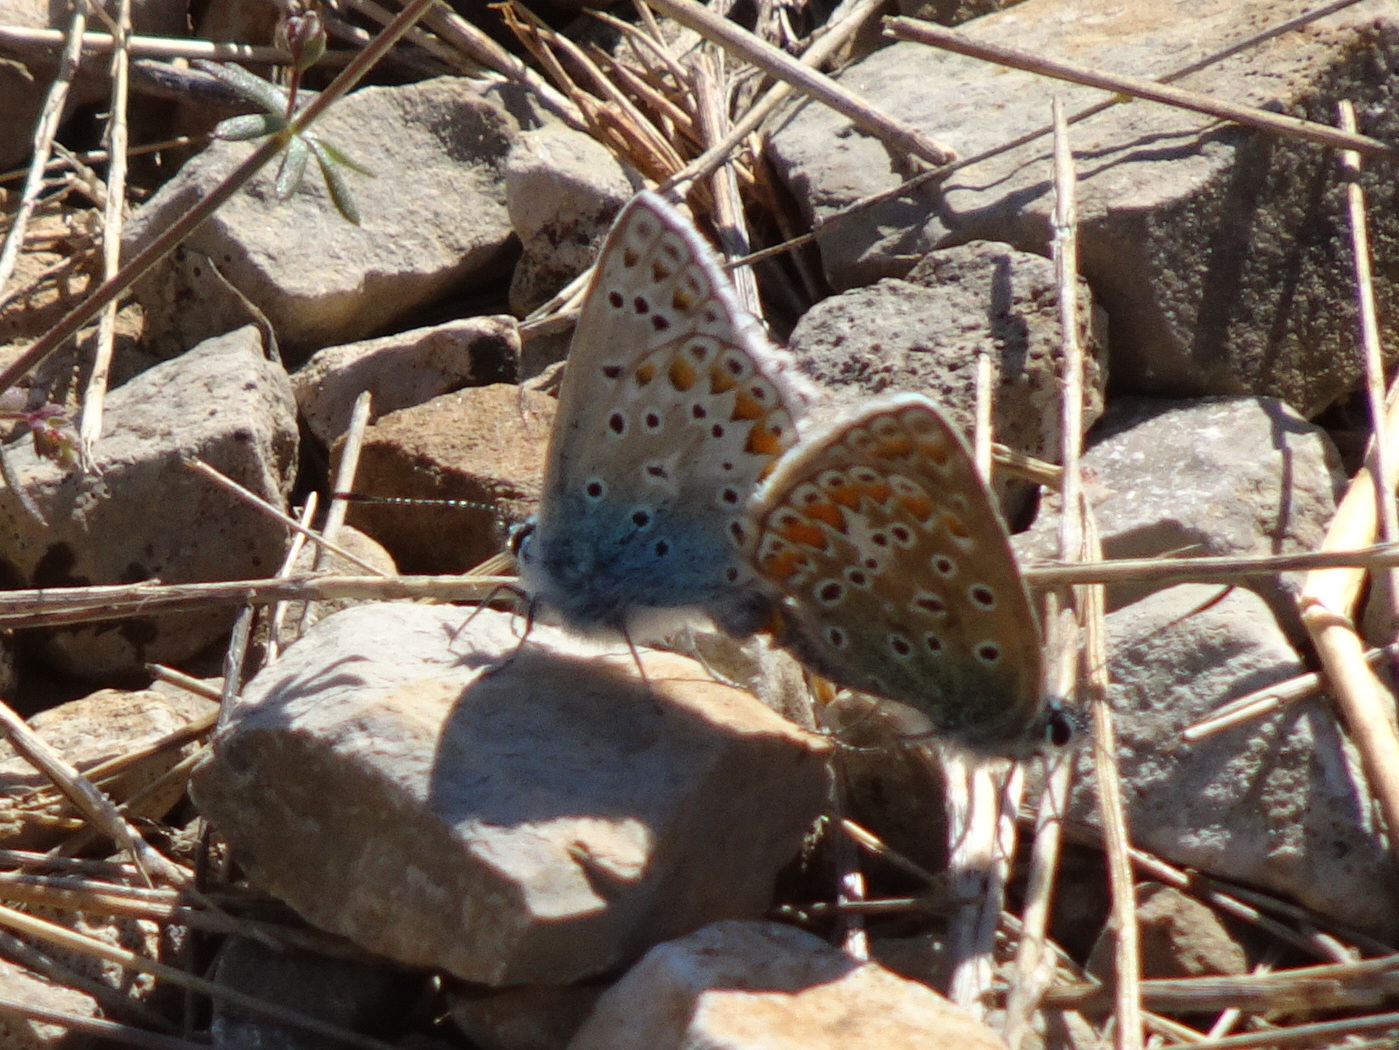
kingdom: Animalia
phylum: Arthropoda
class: Insecta
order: Lepidoptera
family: Lycaenidae
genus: Polyommatus
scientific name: Polyommatus icarus
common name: Common blue
